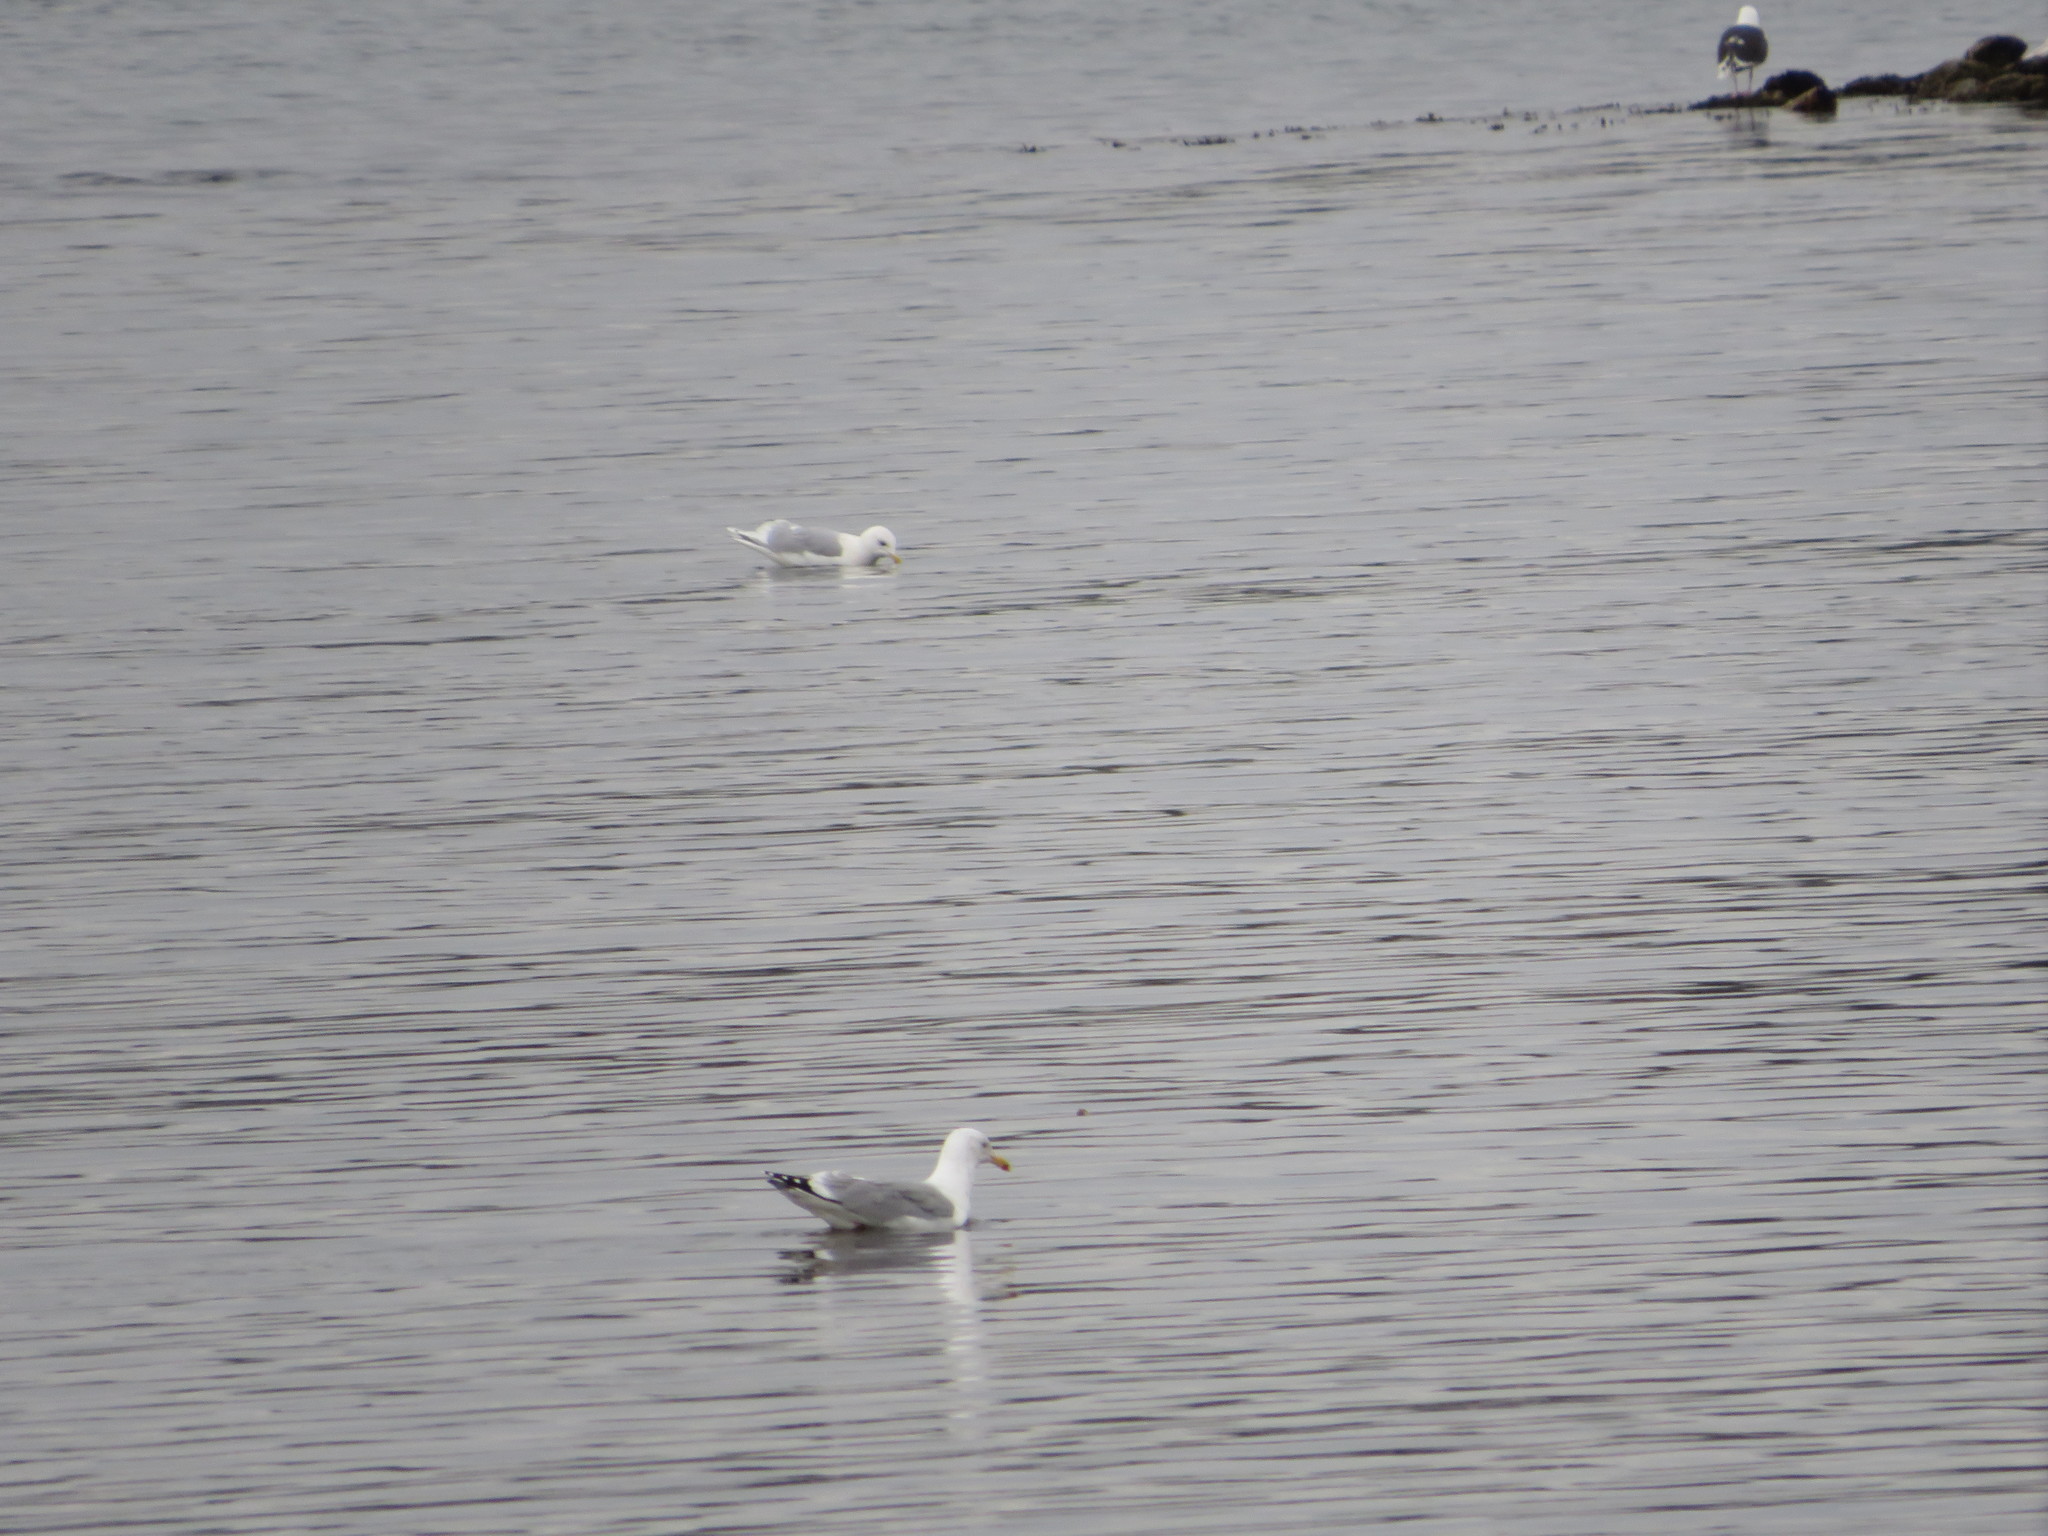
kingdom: Animalia
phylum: Chordata
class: Aves
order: Charadriiformes
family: Laridae
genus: Larus
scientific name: Larus argentatus
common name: Herring gull
